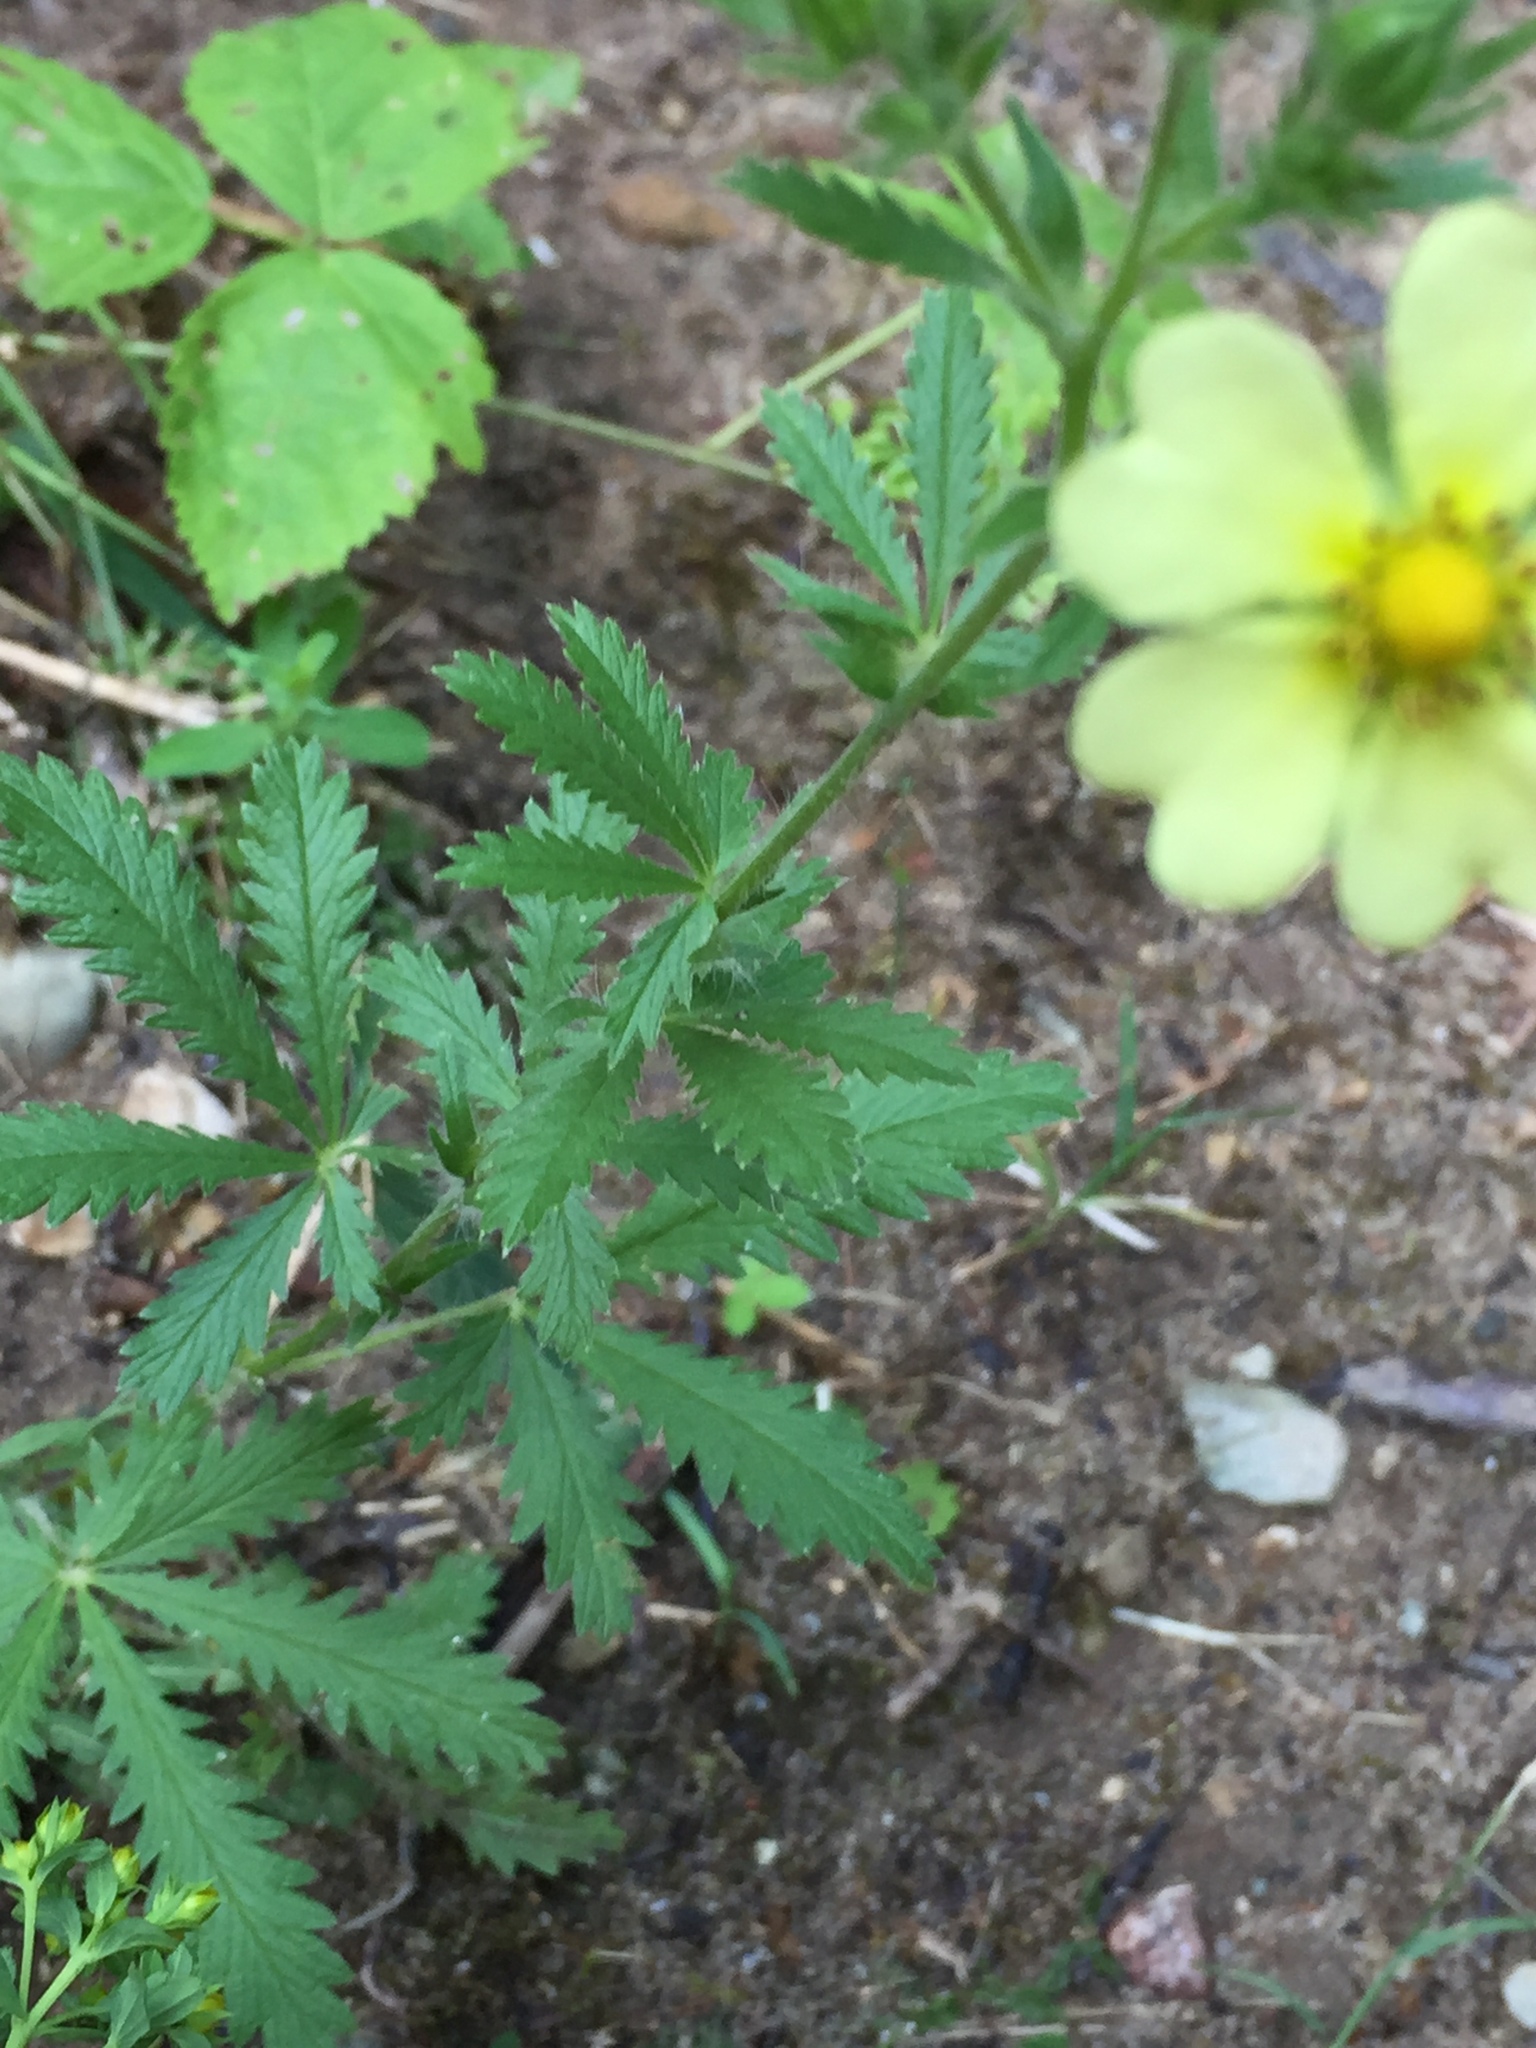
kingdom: Plantae
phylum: Tracheophyta
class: Magnoliopsida
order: Rosales
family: Rosaceae
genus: Potentilla
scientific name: Potentilla recta
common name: Sulphur cinquefoil
